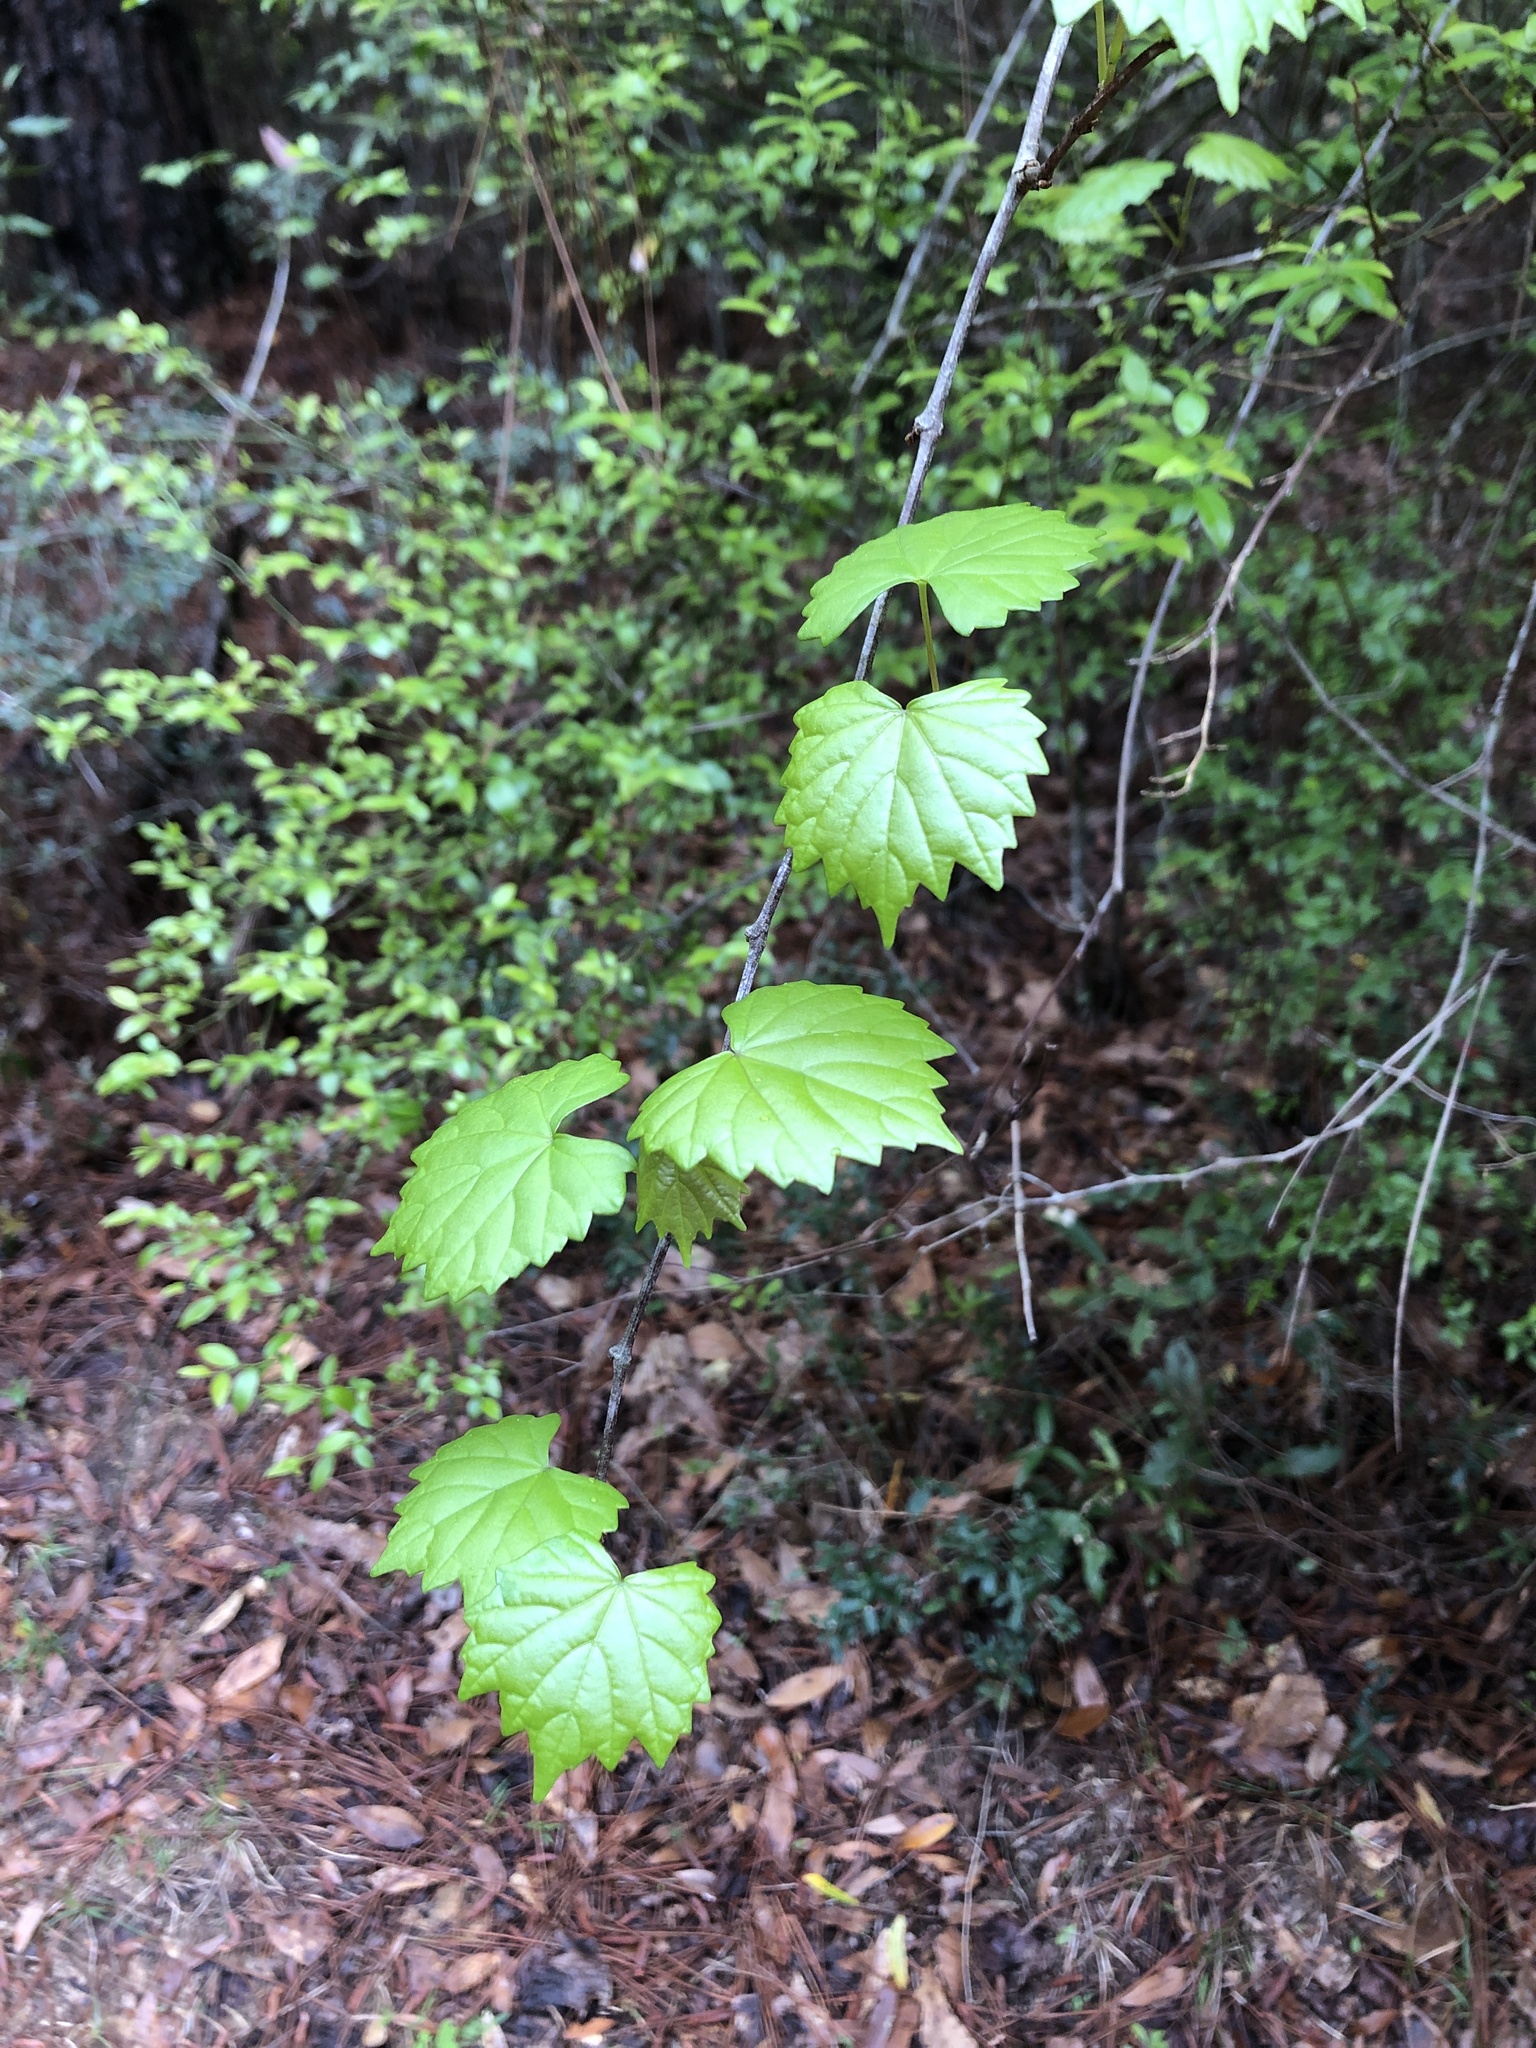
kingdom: Plantae
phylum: Tracheophyta
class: Magnoliopsida
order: Vitales
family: Vitaceae
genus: Vitis
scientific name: Vitis rotundifolia
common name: Muscadine grape
